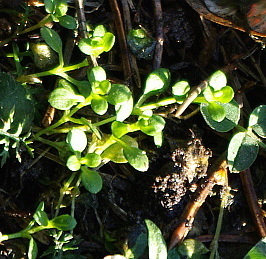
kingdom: Plantae
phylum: Tracheophyta
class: Magnoliopsida
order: Caryophyllales
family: Caryophyllaceae
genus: Stellaria
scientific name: Stellaria media
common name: Common chickweed
